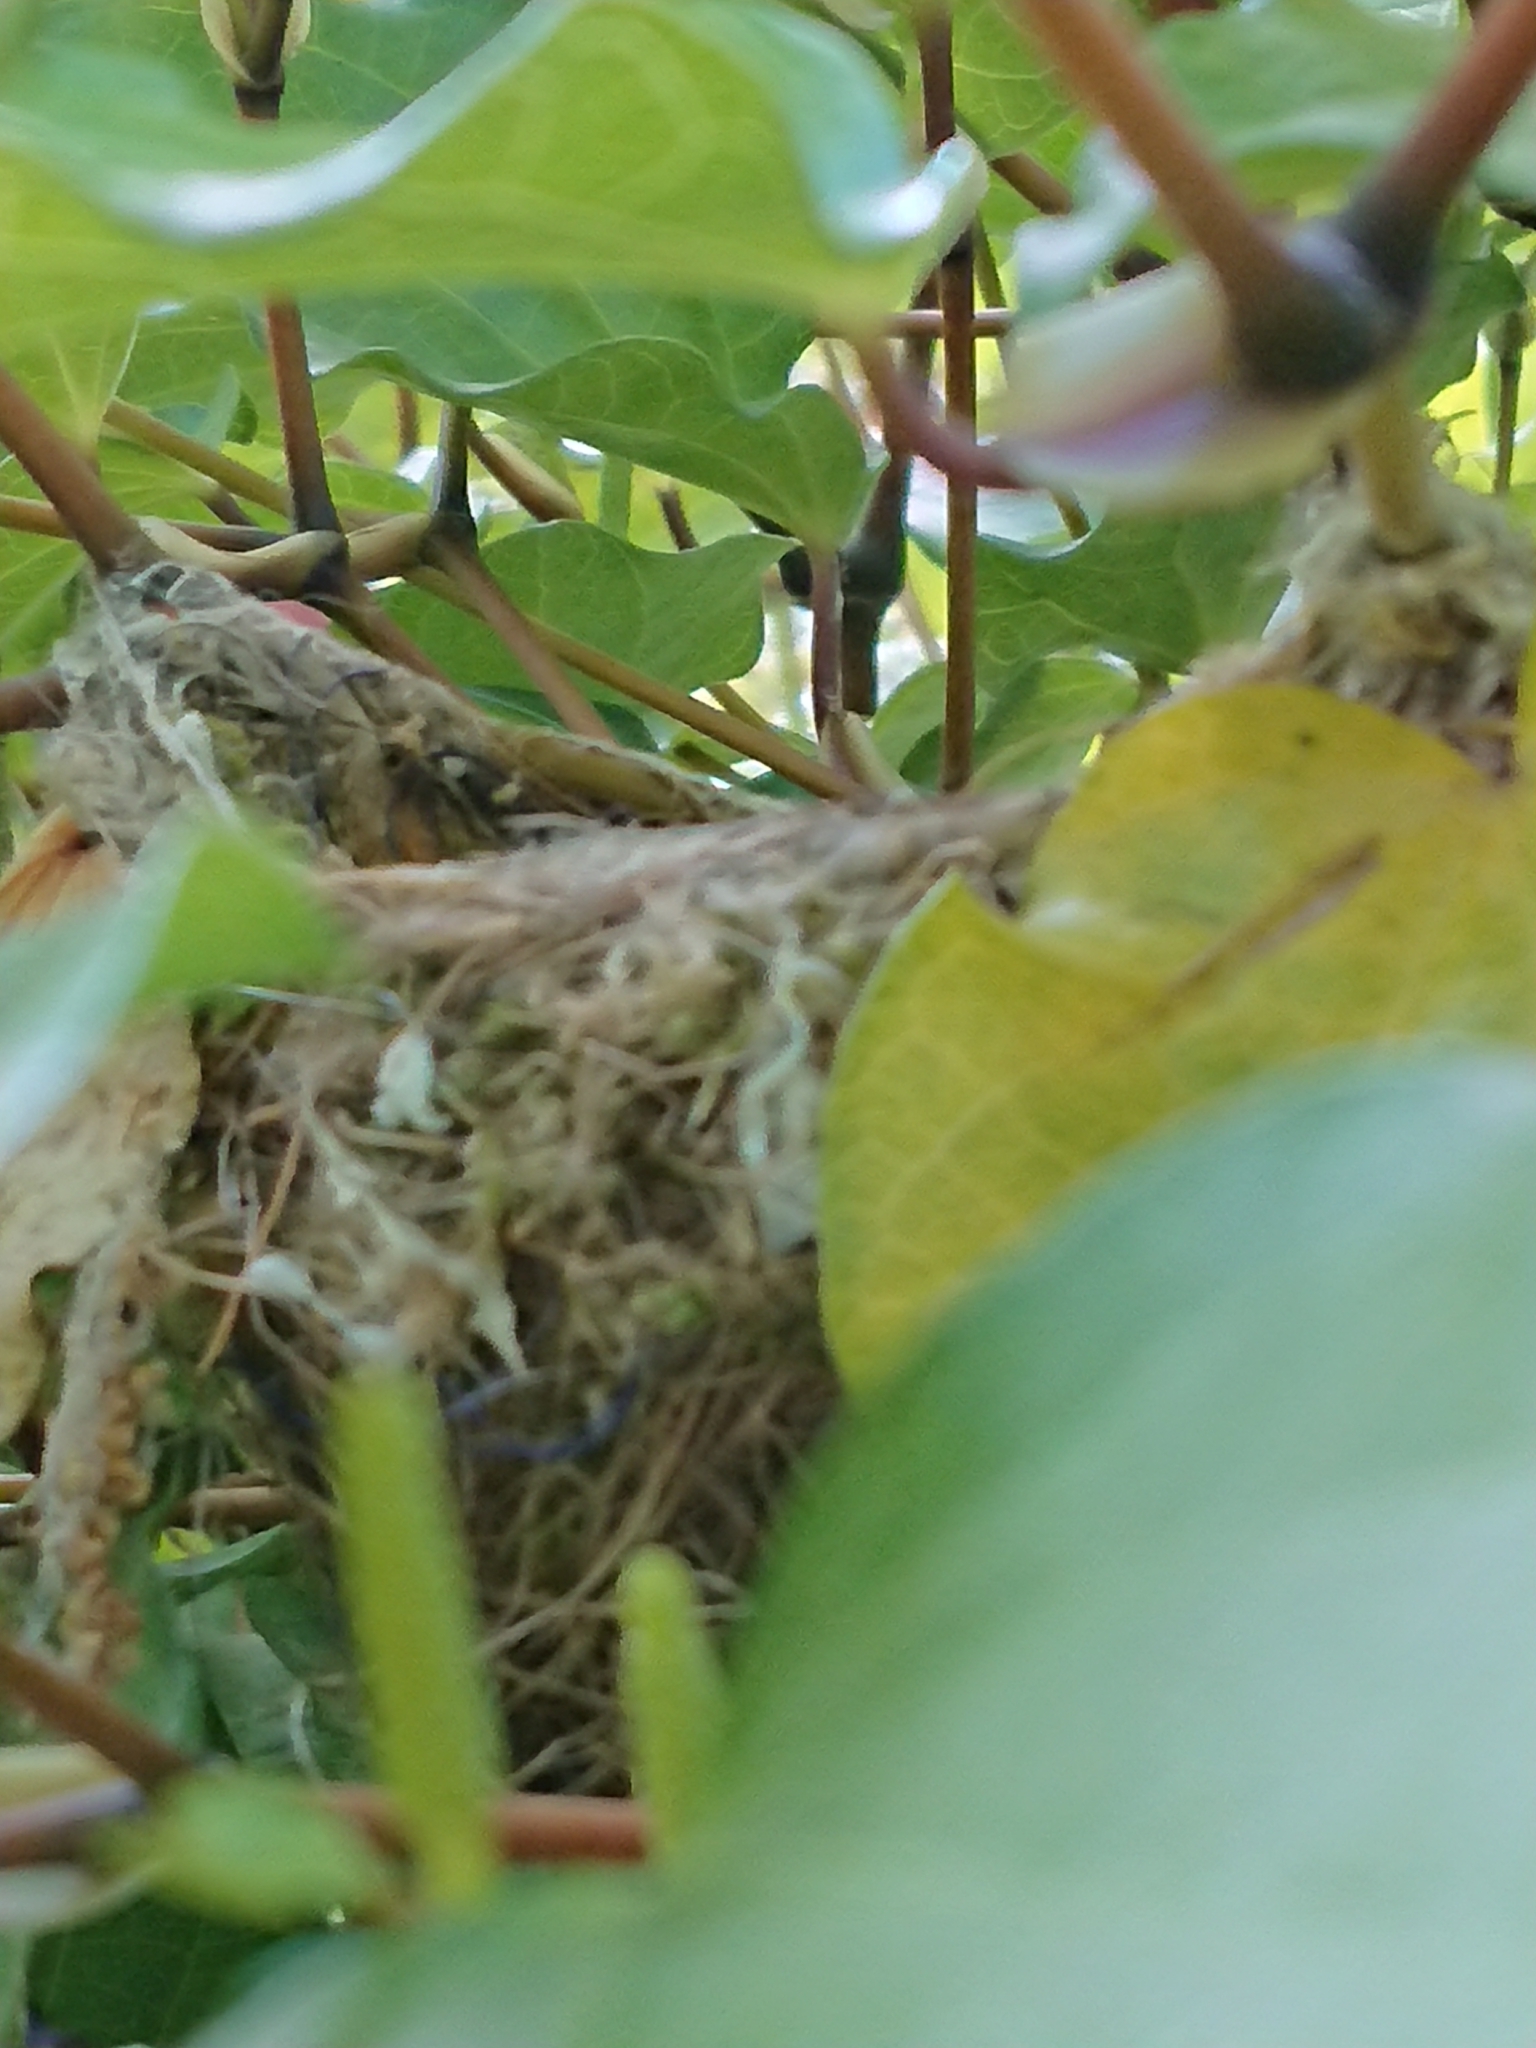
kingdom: Animalia
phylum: Chordata
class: Aves
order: Passeriformes
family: Zosteropidae
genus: Zosterops
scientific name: Zosterops lateralis
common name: Silvereye
